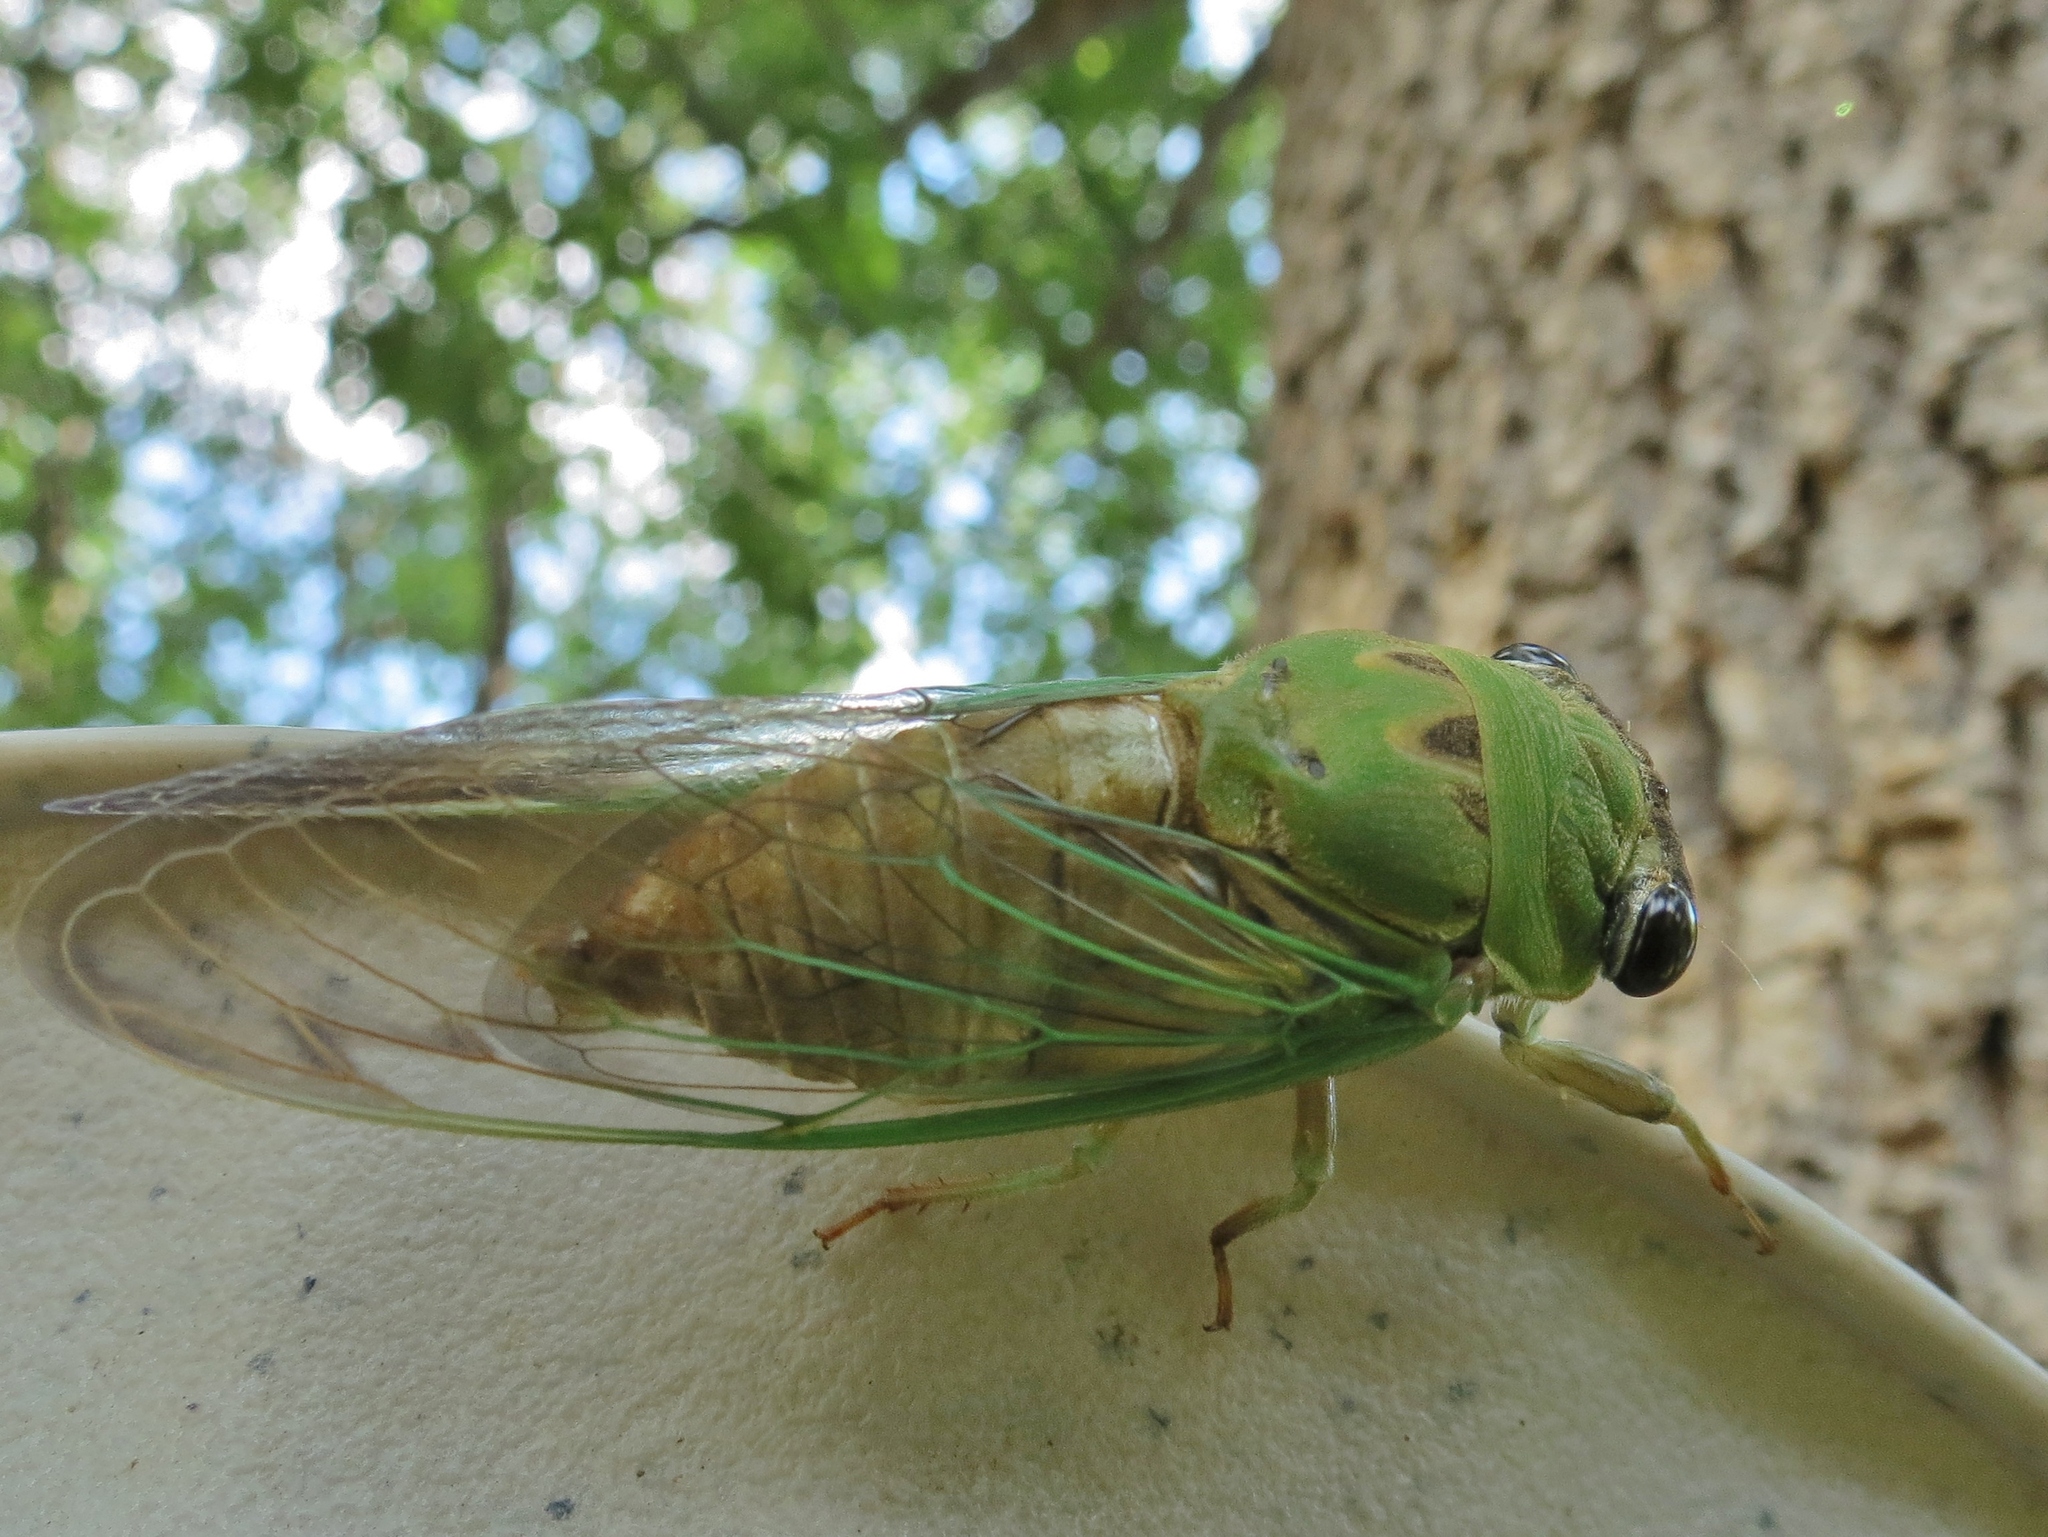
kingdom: Animalia
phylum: Arthropoda
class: Insecta
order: Hemiptera
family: Cicadidae
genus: Neotibicen
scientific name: Neotibicen superbus
